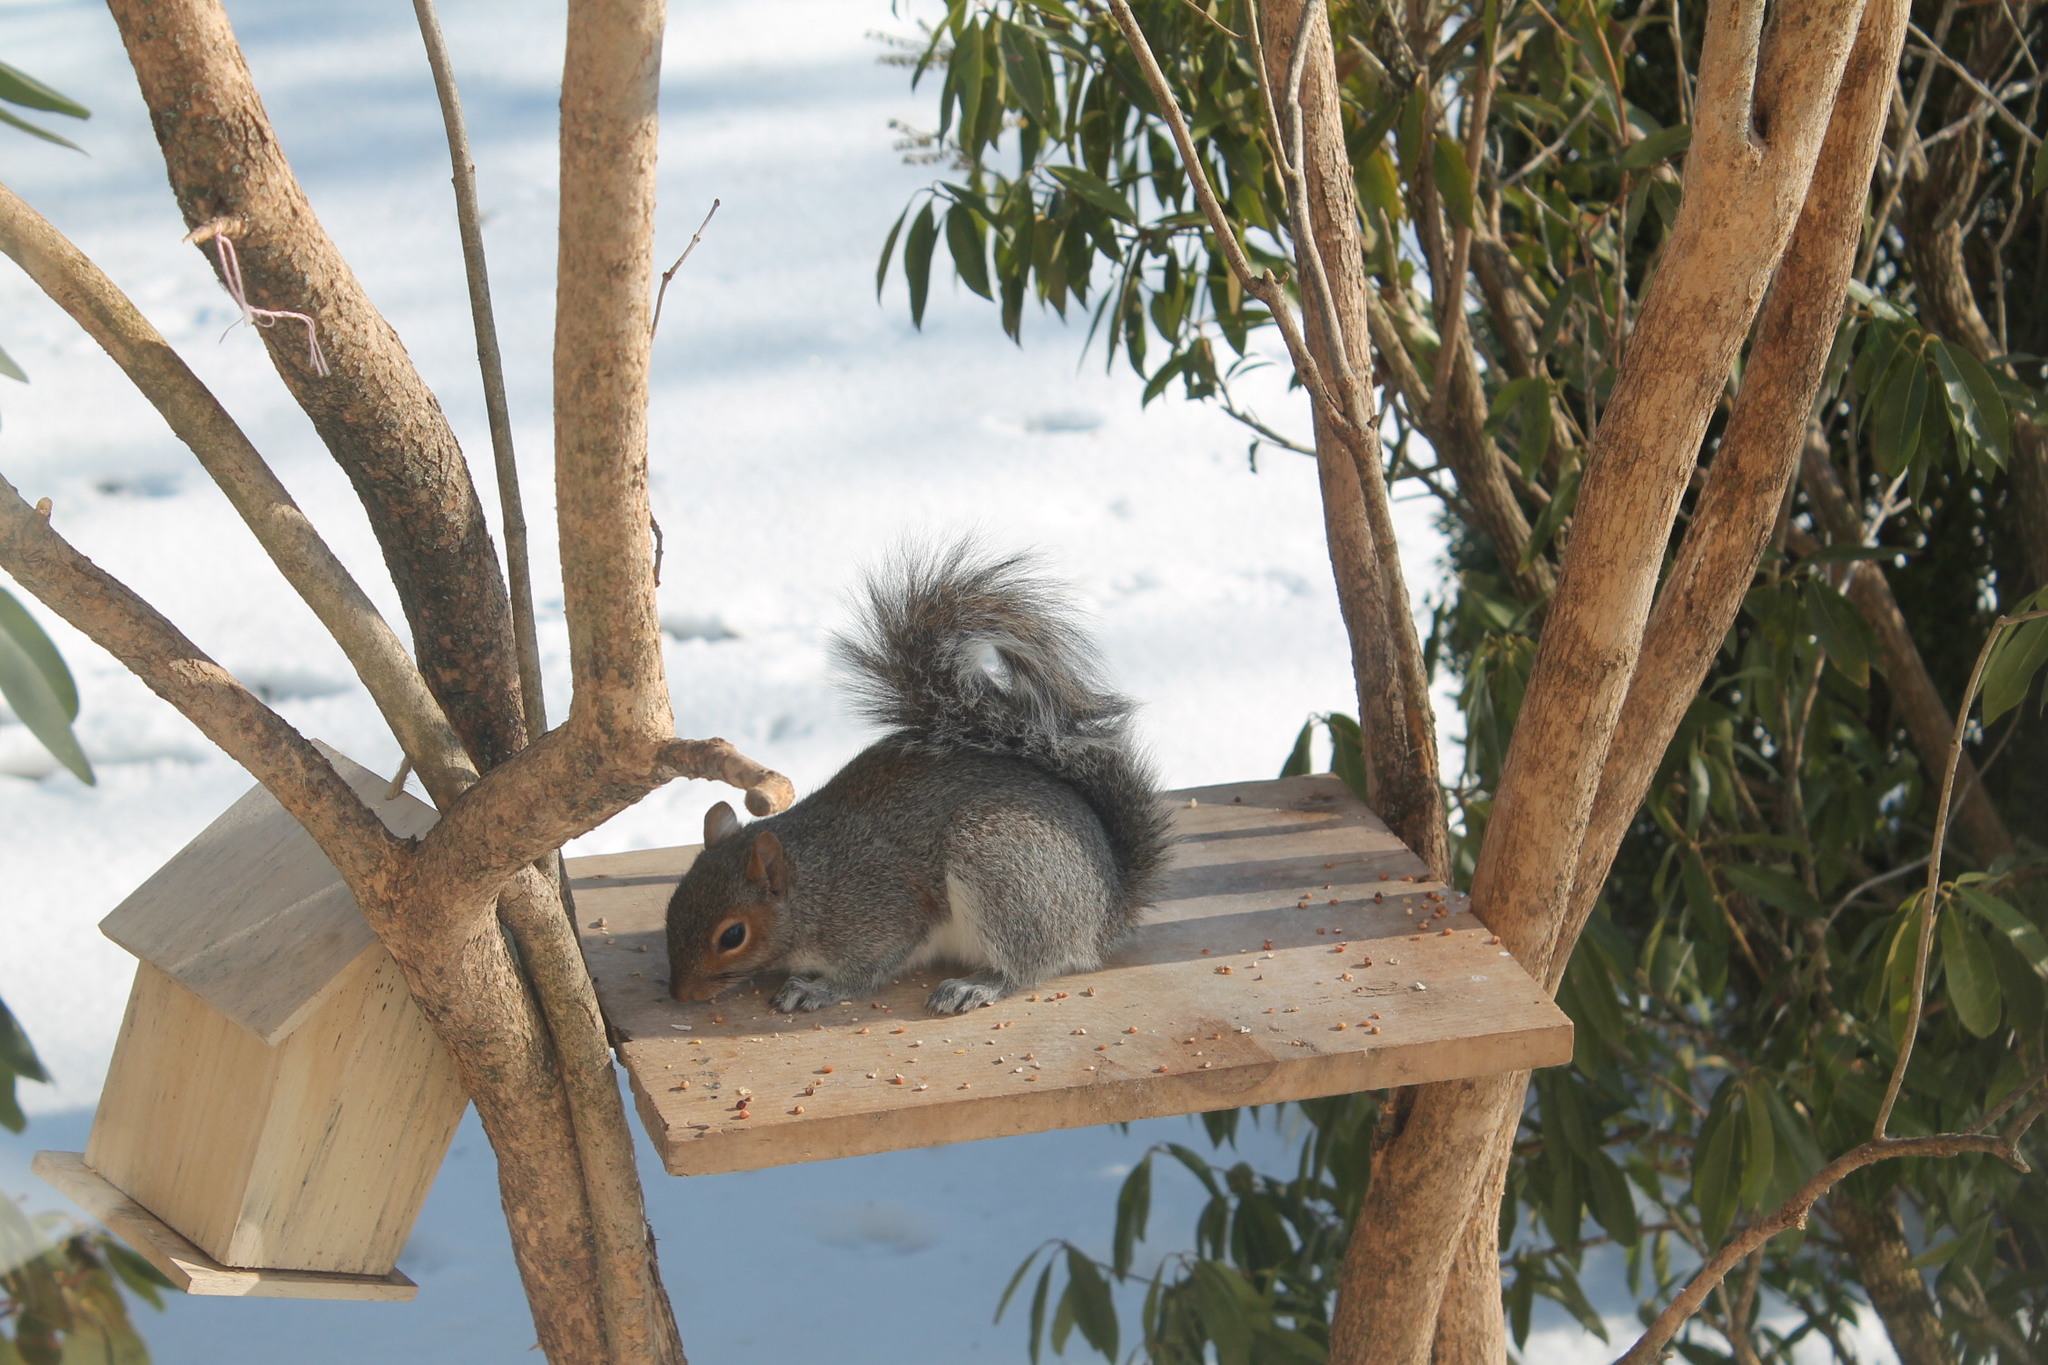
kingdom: Animalia
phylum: Chordata
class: Mammalia
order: Rodentia
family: Sciuridae
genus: Sciurus
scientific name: Sciurus carolinensis
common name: Eastern gray squirrel
